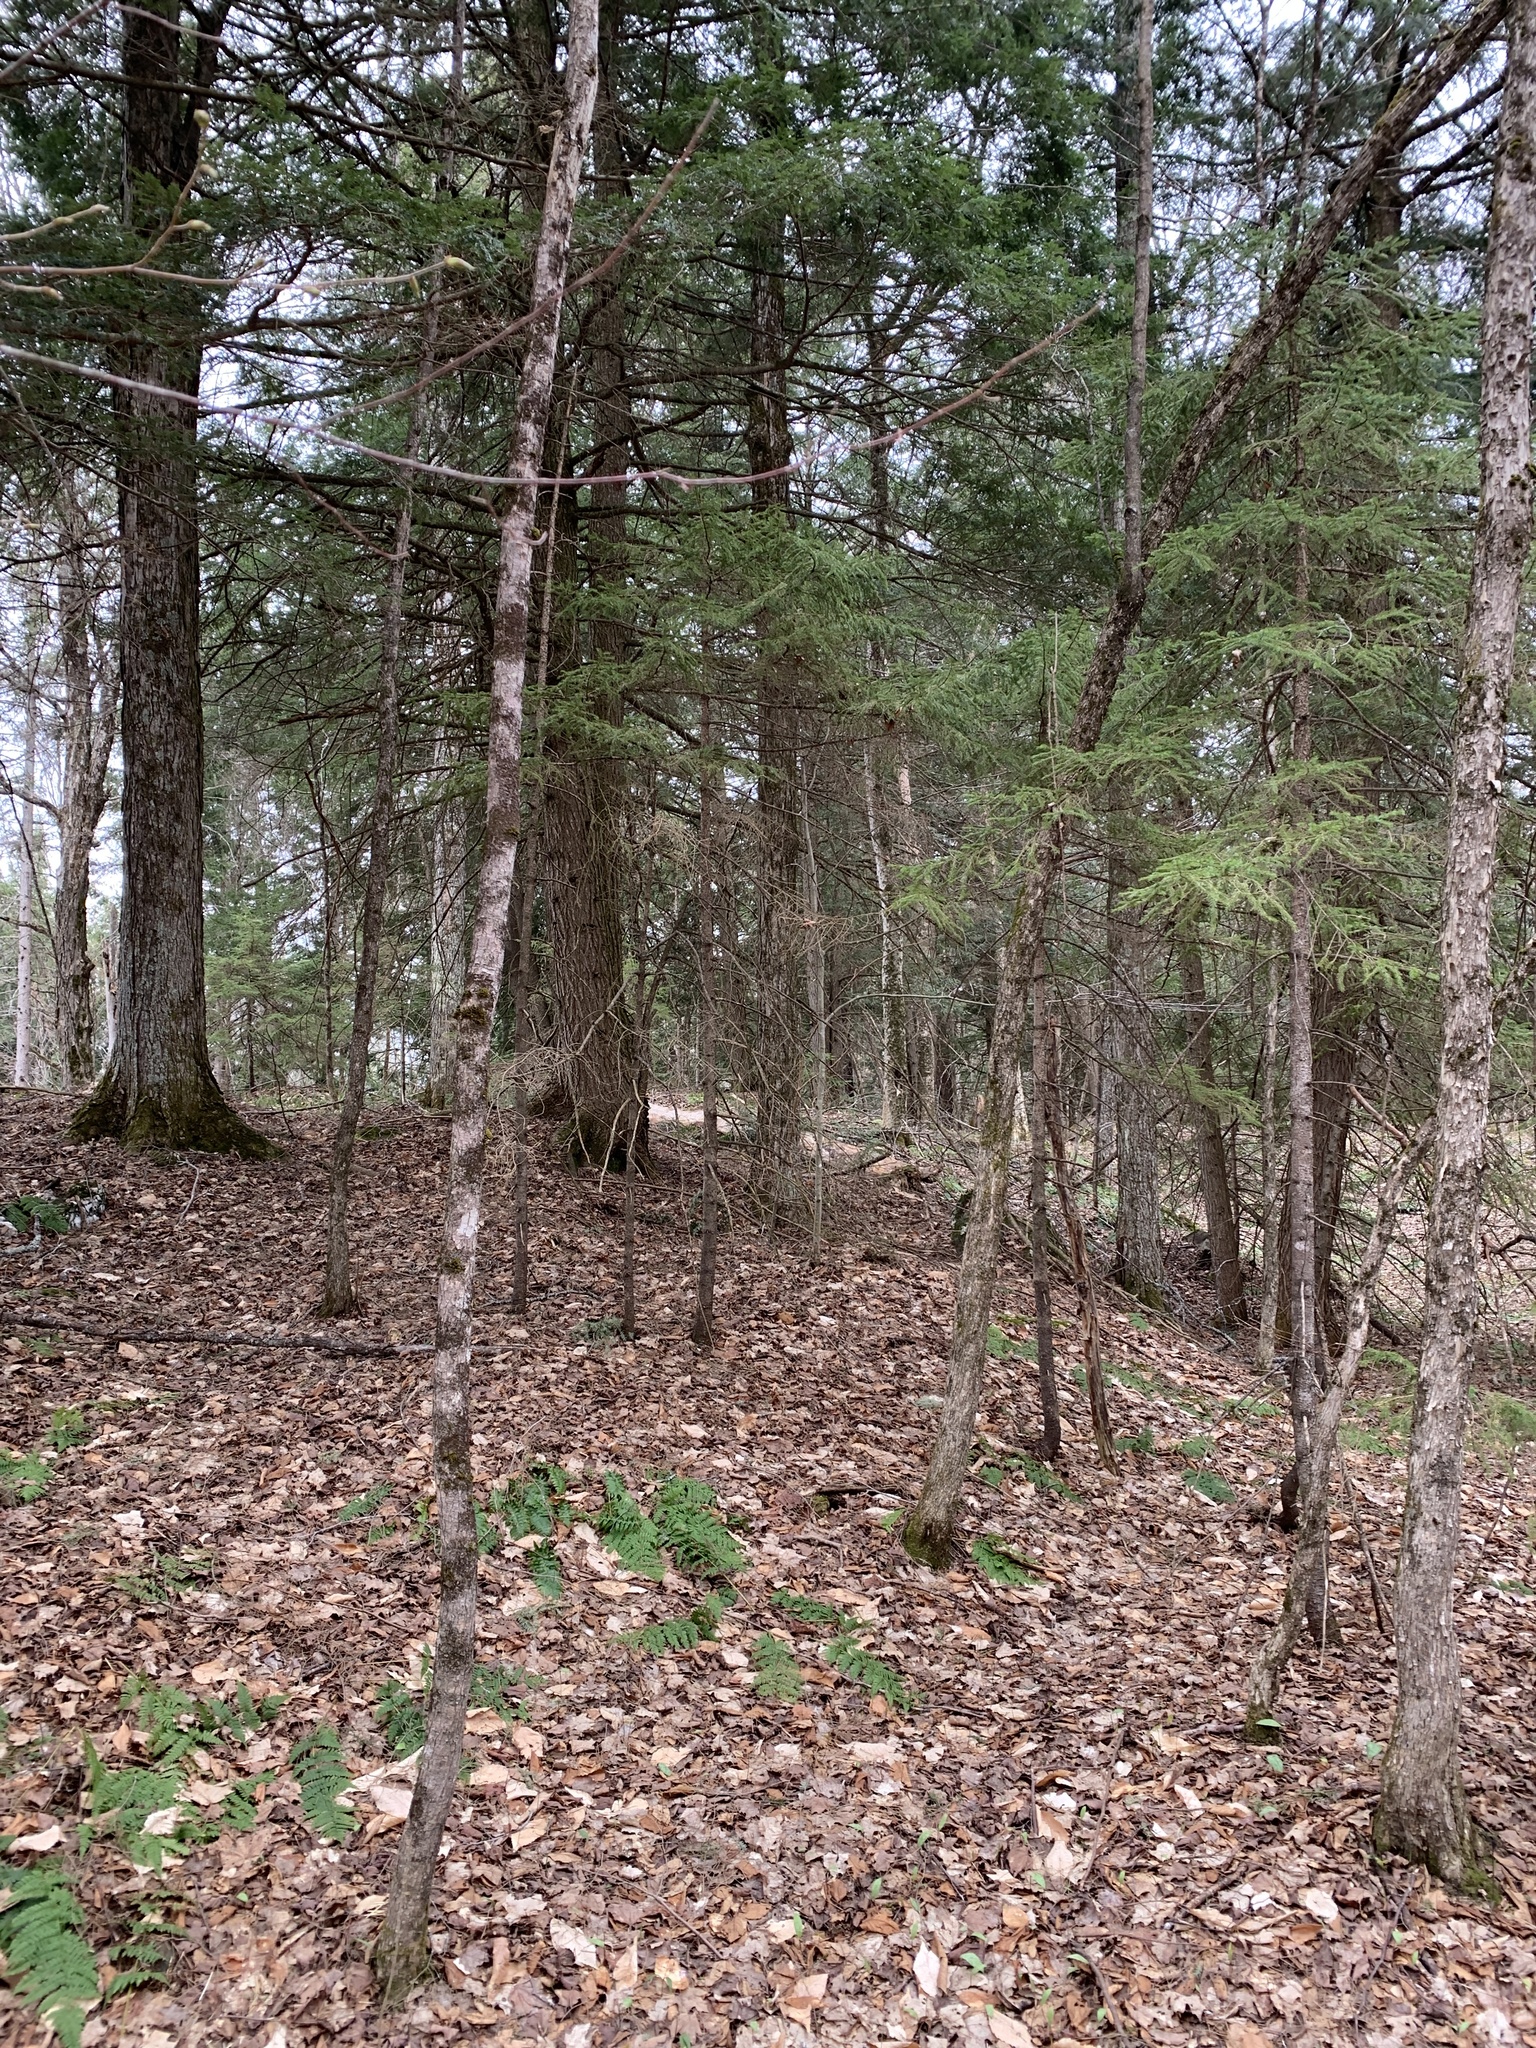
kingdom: Plantae
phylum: Tracheophyta
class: Pinopsida
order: Pinales
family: Pinaceae
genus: Tsuga
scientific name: Tsuga canadensis
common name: Eastern hemlock
